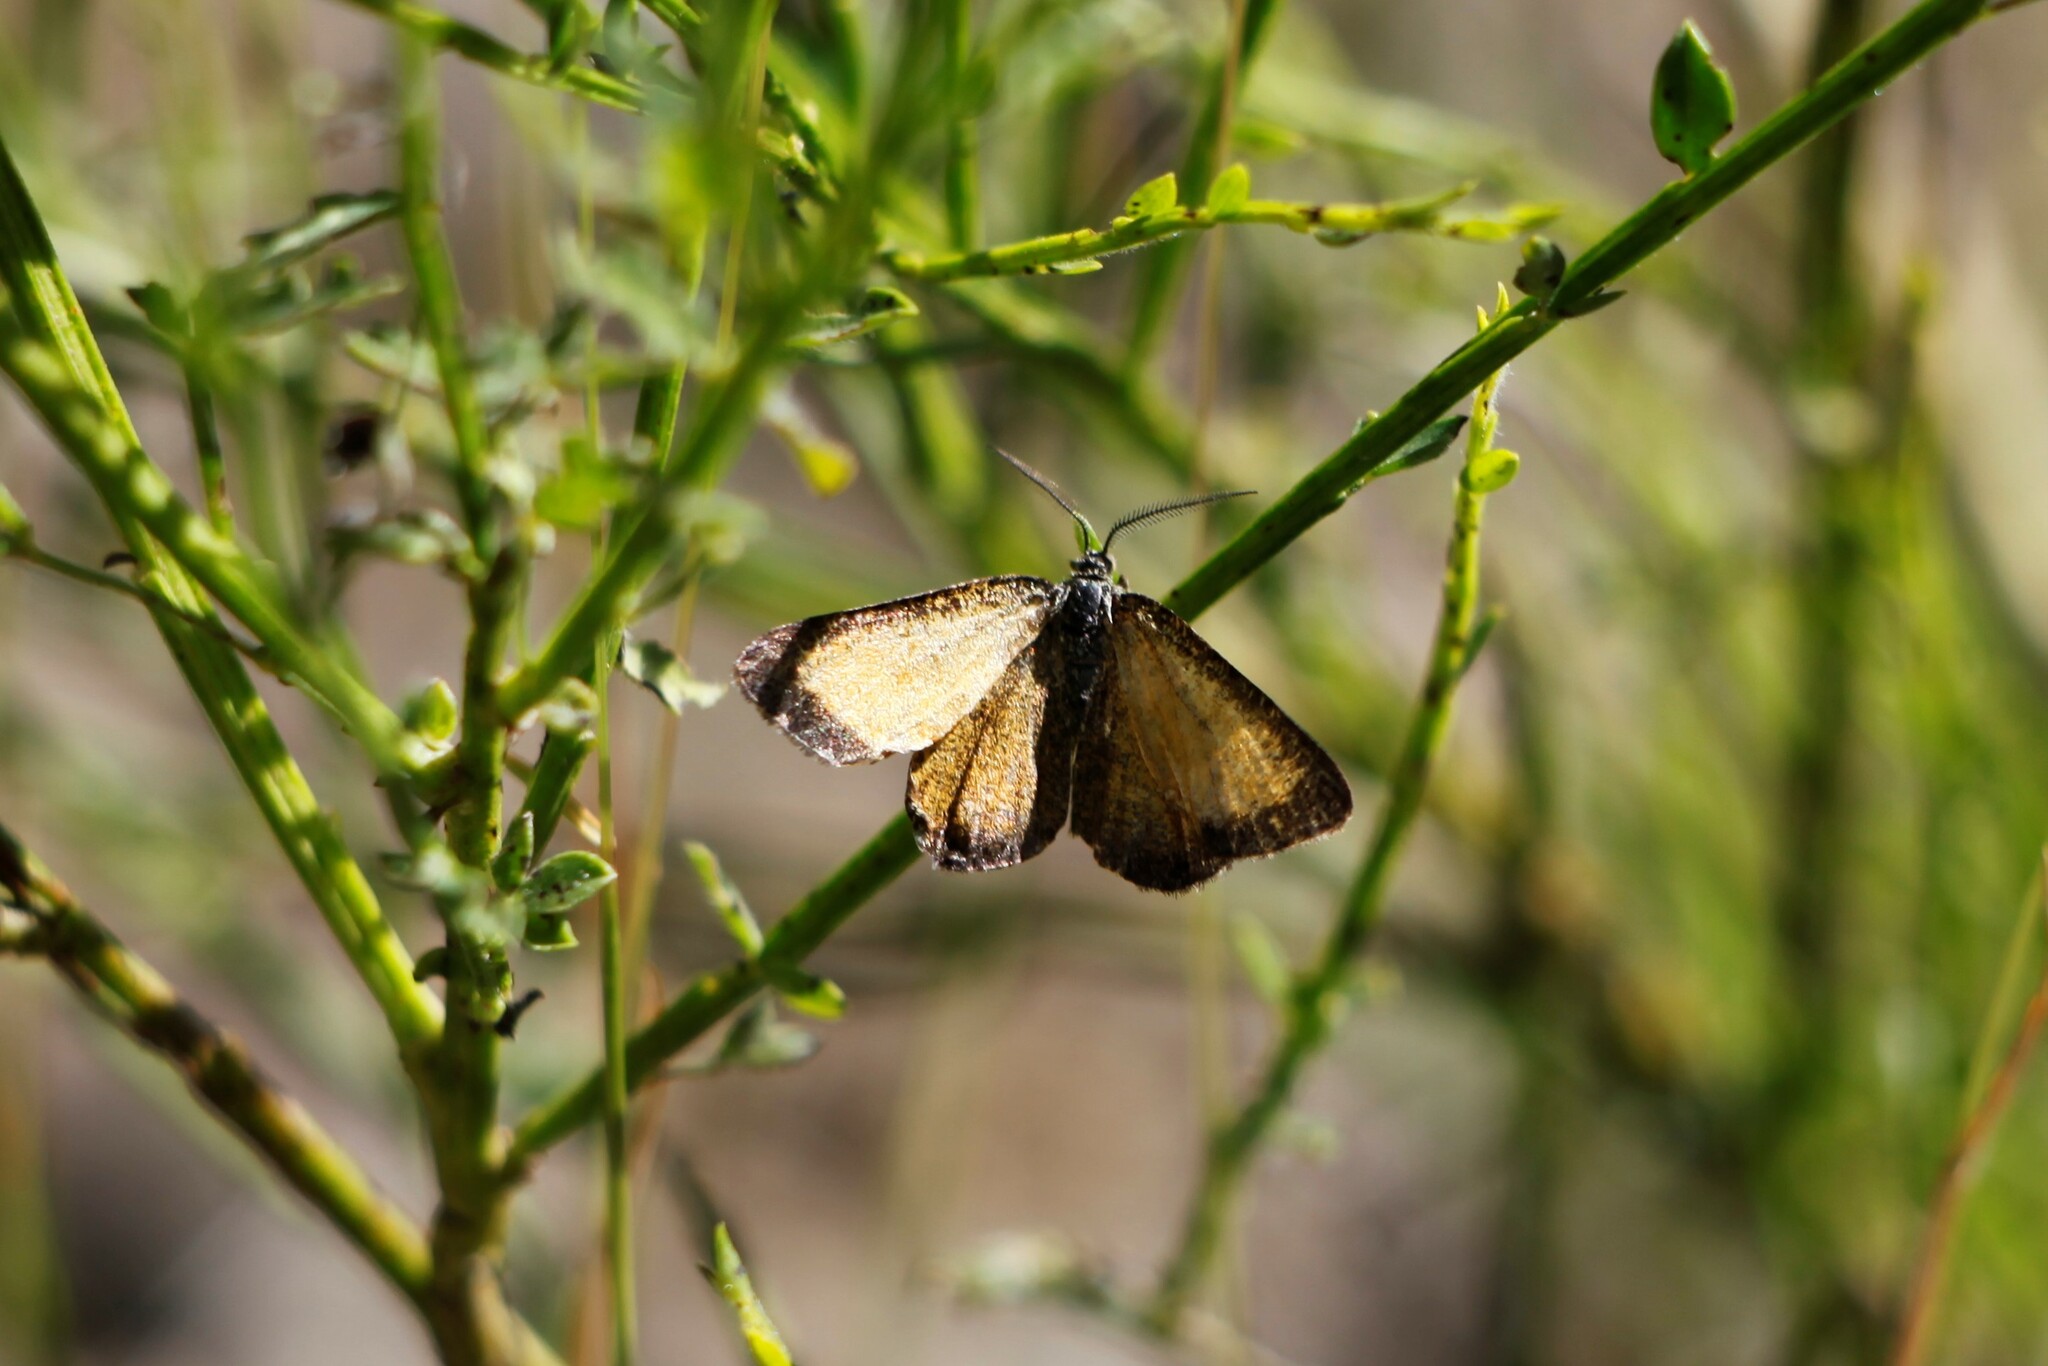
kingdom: Animalia
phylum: Arthropoda
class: Insecta
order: Lepidoptera
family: Geometridae
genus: Isturgia
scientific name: Isturgia limbaria
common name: Frosted yellow
